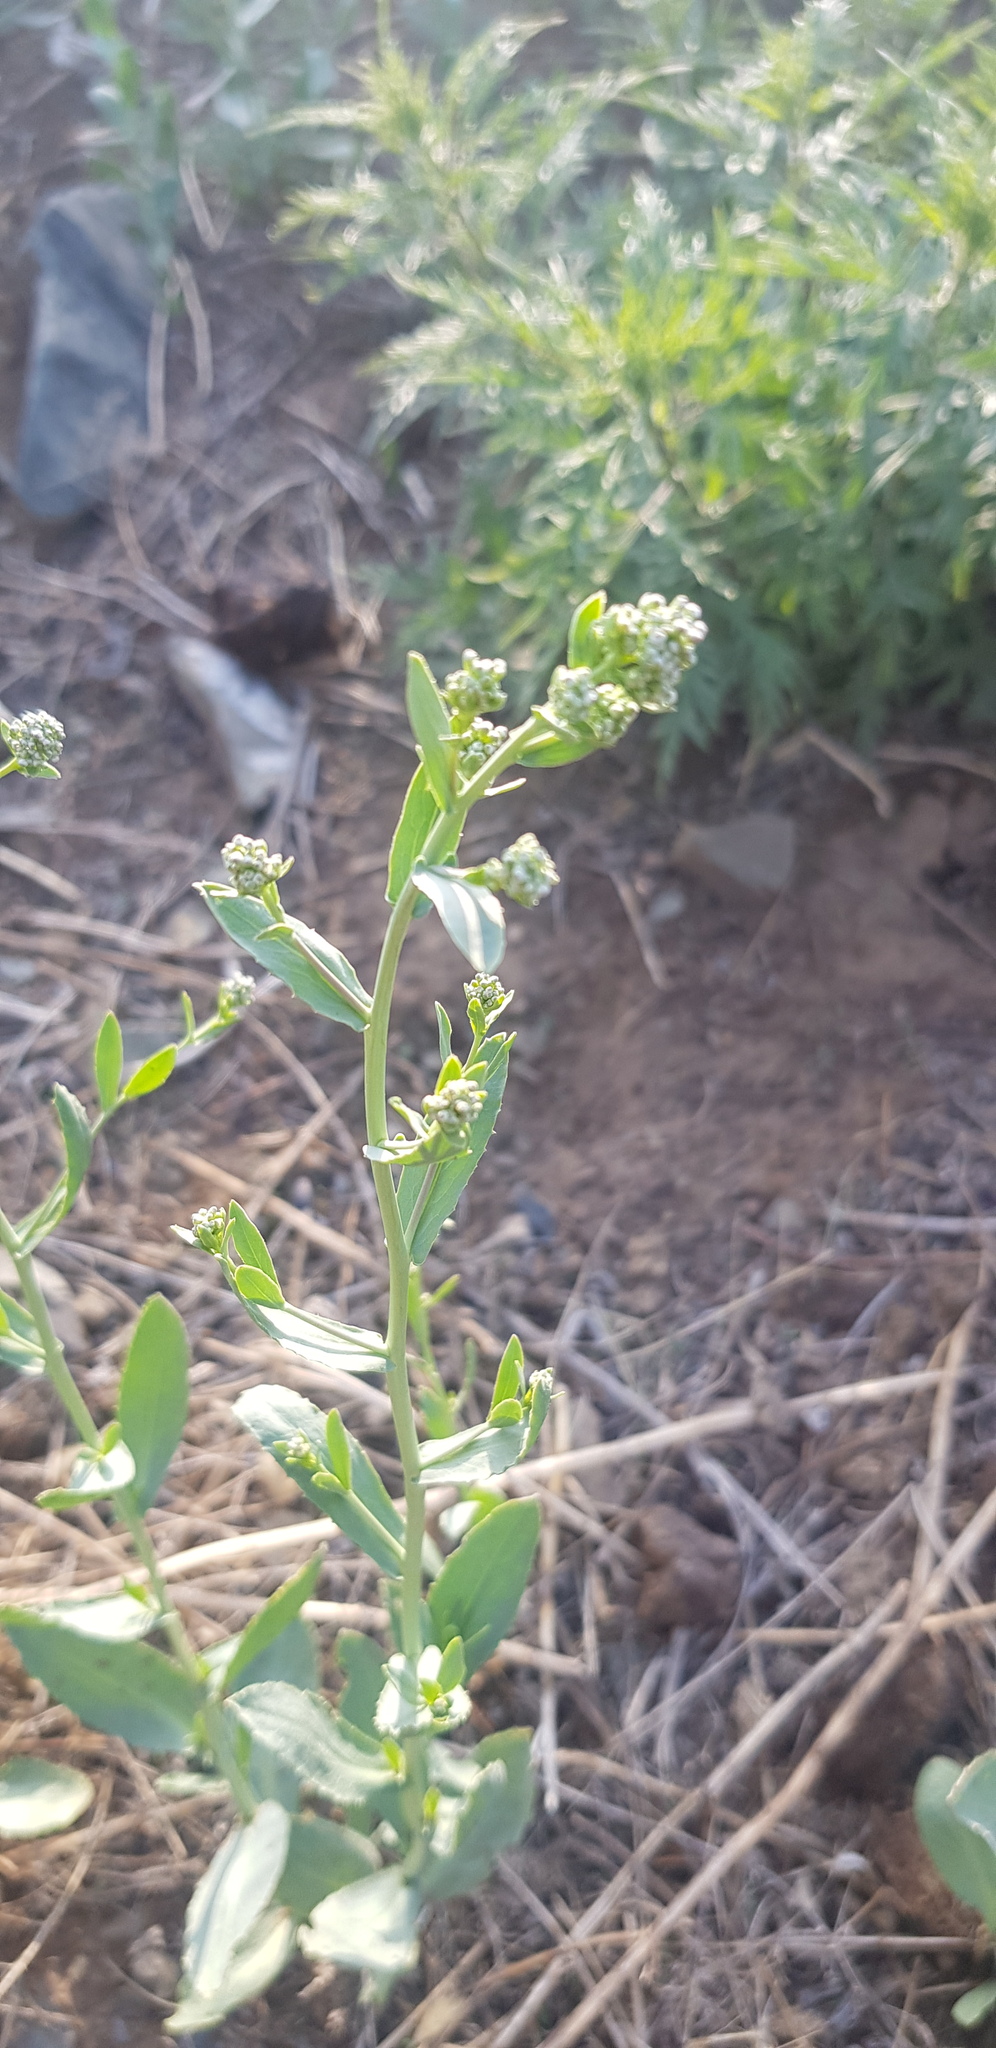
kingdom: Plantae
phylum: Tracheophyta
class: Magnoliopsida
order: Brassicales
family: Brassicaceae
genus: Lepidium
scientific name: Lepidium densiflorum
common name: Miner's pepperwort
